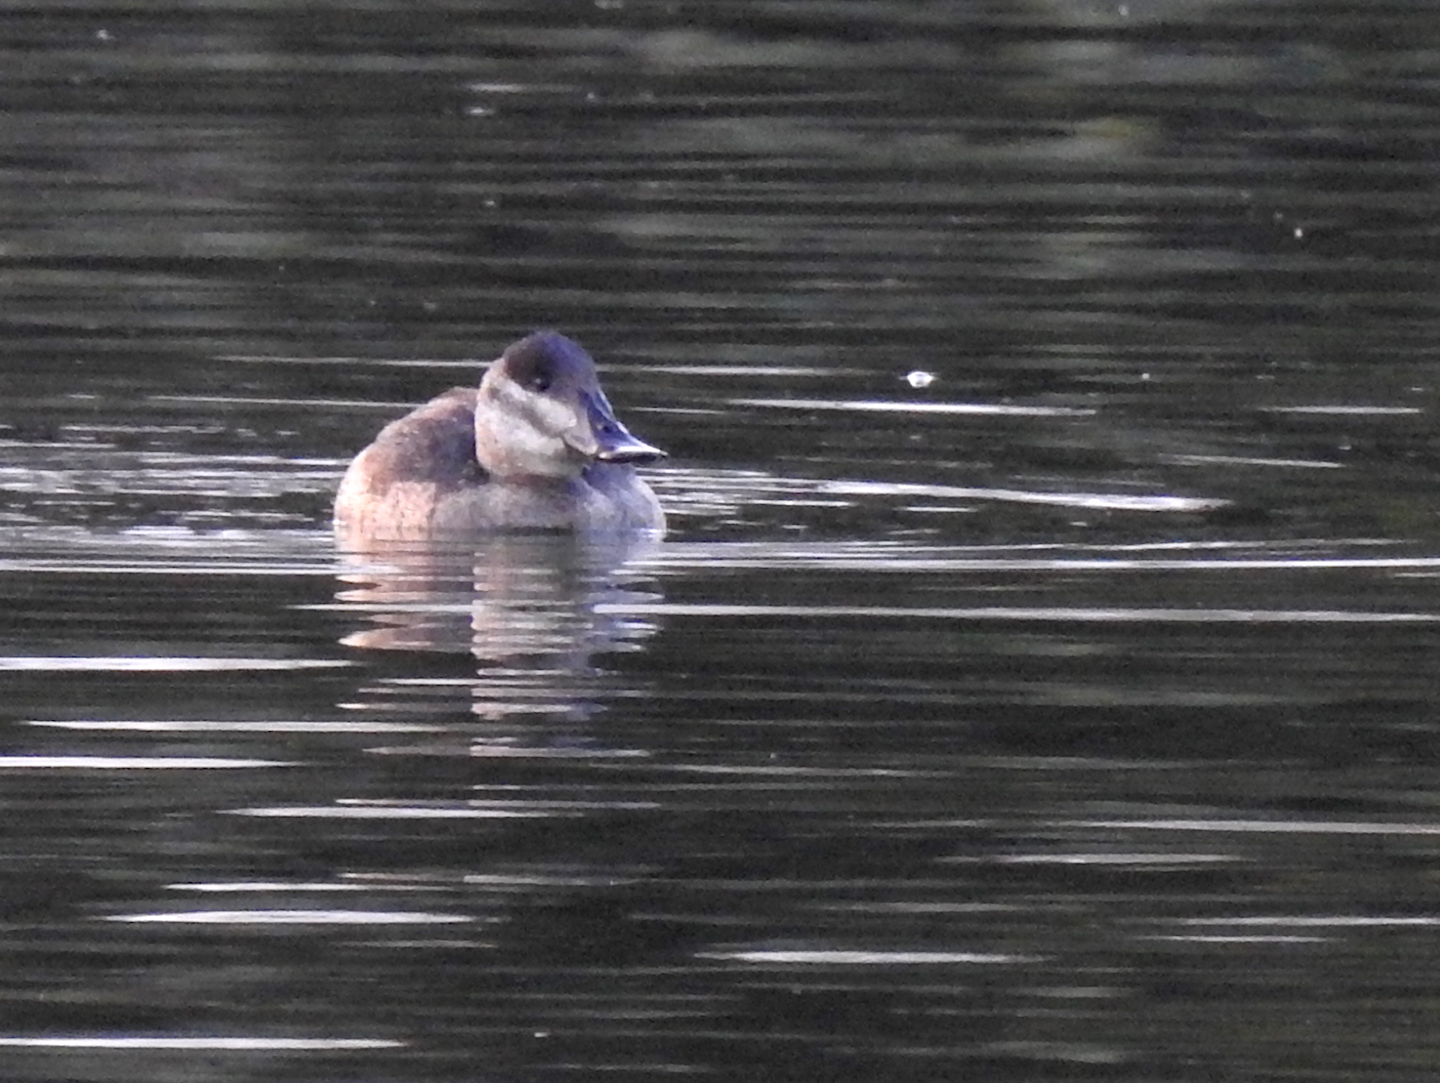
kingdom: Animalia
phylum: Chordata
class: Aves
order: Anseriformes
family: Anatidae
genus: Oxyura
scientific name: Oxyura jamaicensis
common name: Ruddy duck
